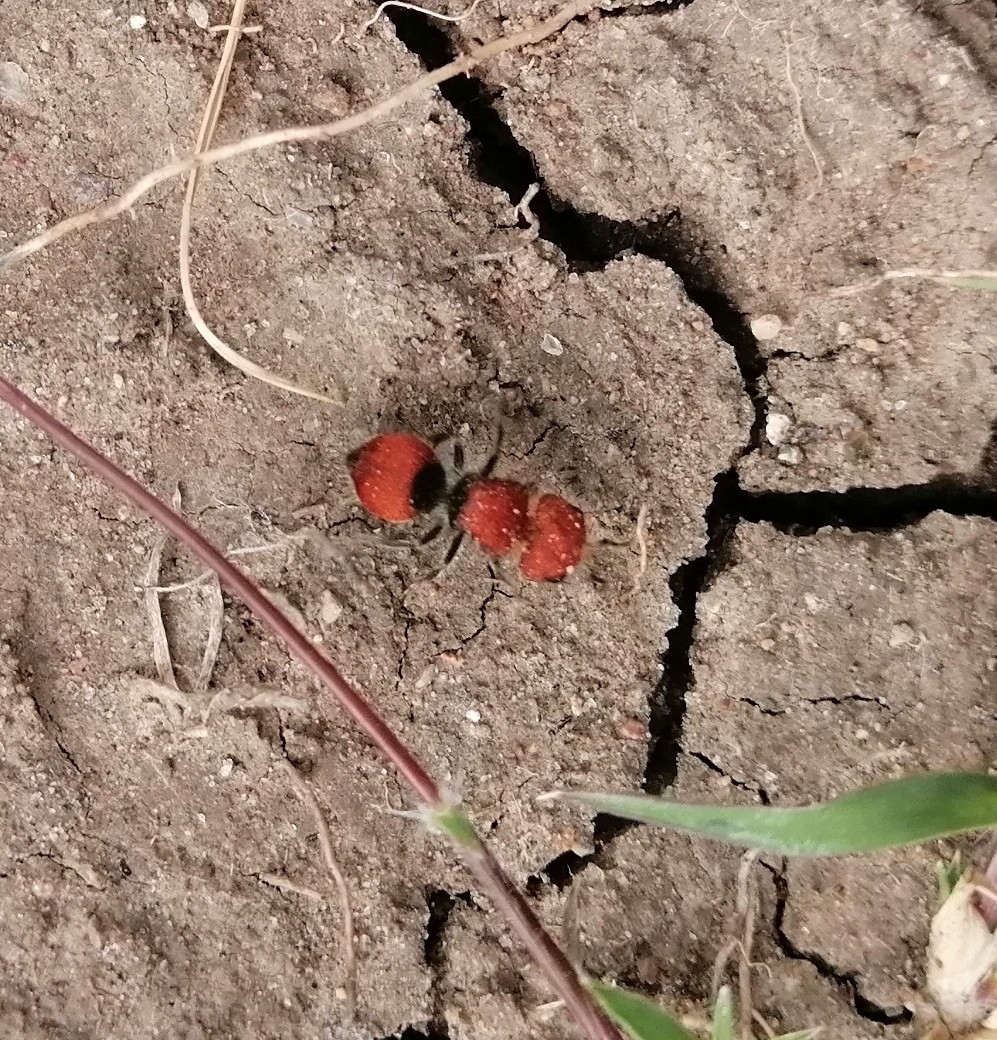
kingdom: Animalia
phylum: Arthropoda
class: Insecta
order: Hymenoptera
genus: Invreiella
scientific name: Invreiella satrapa
